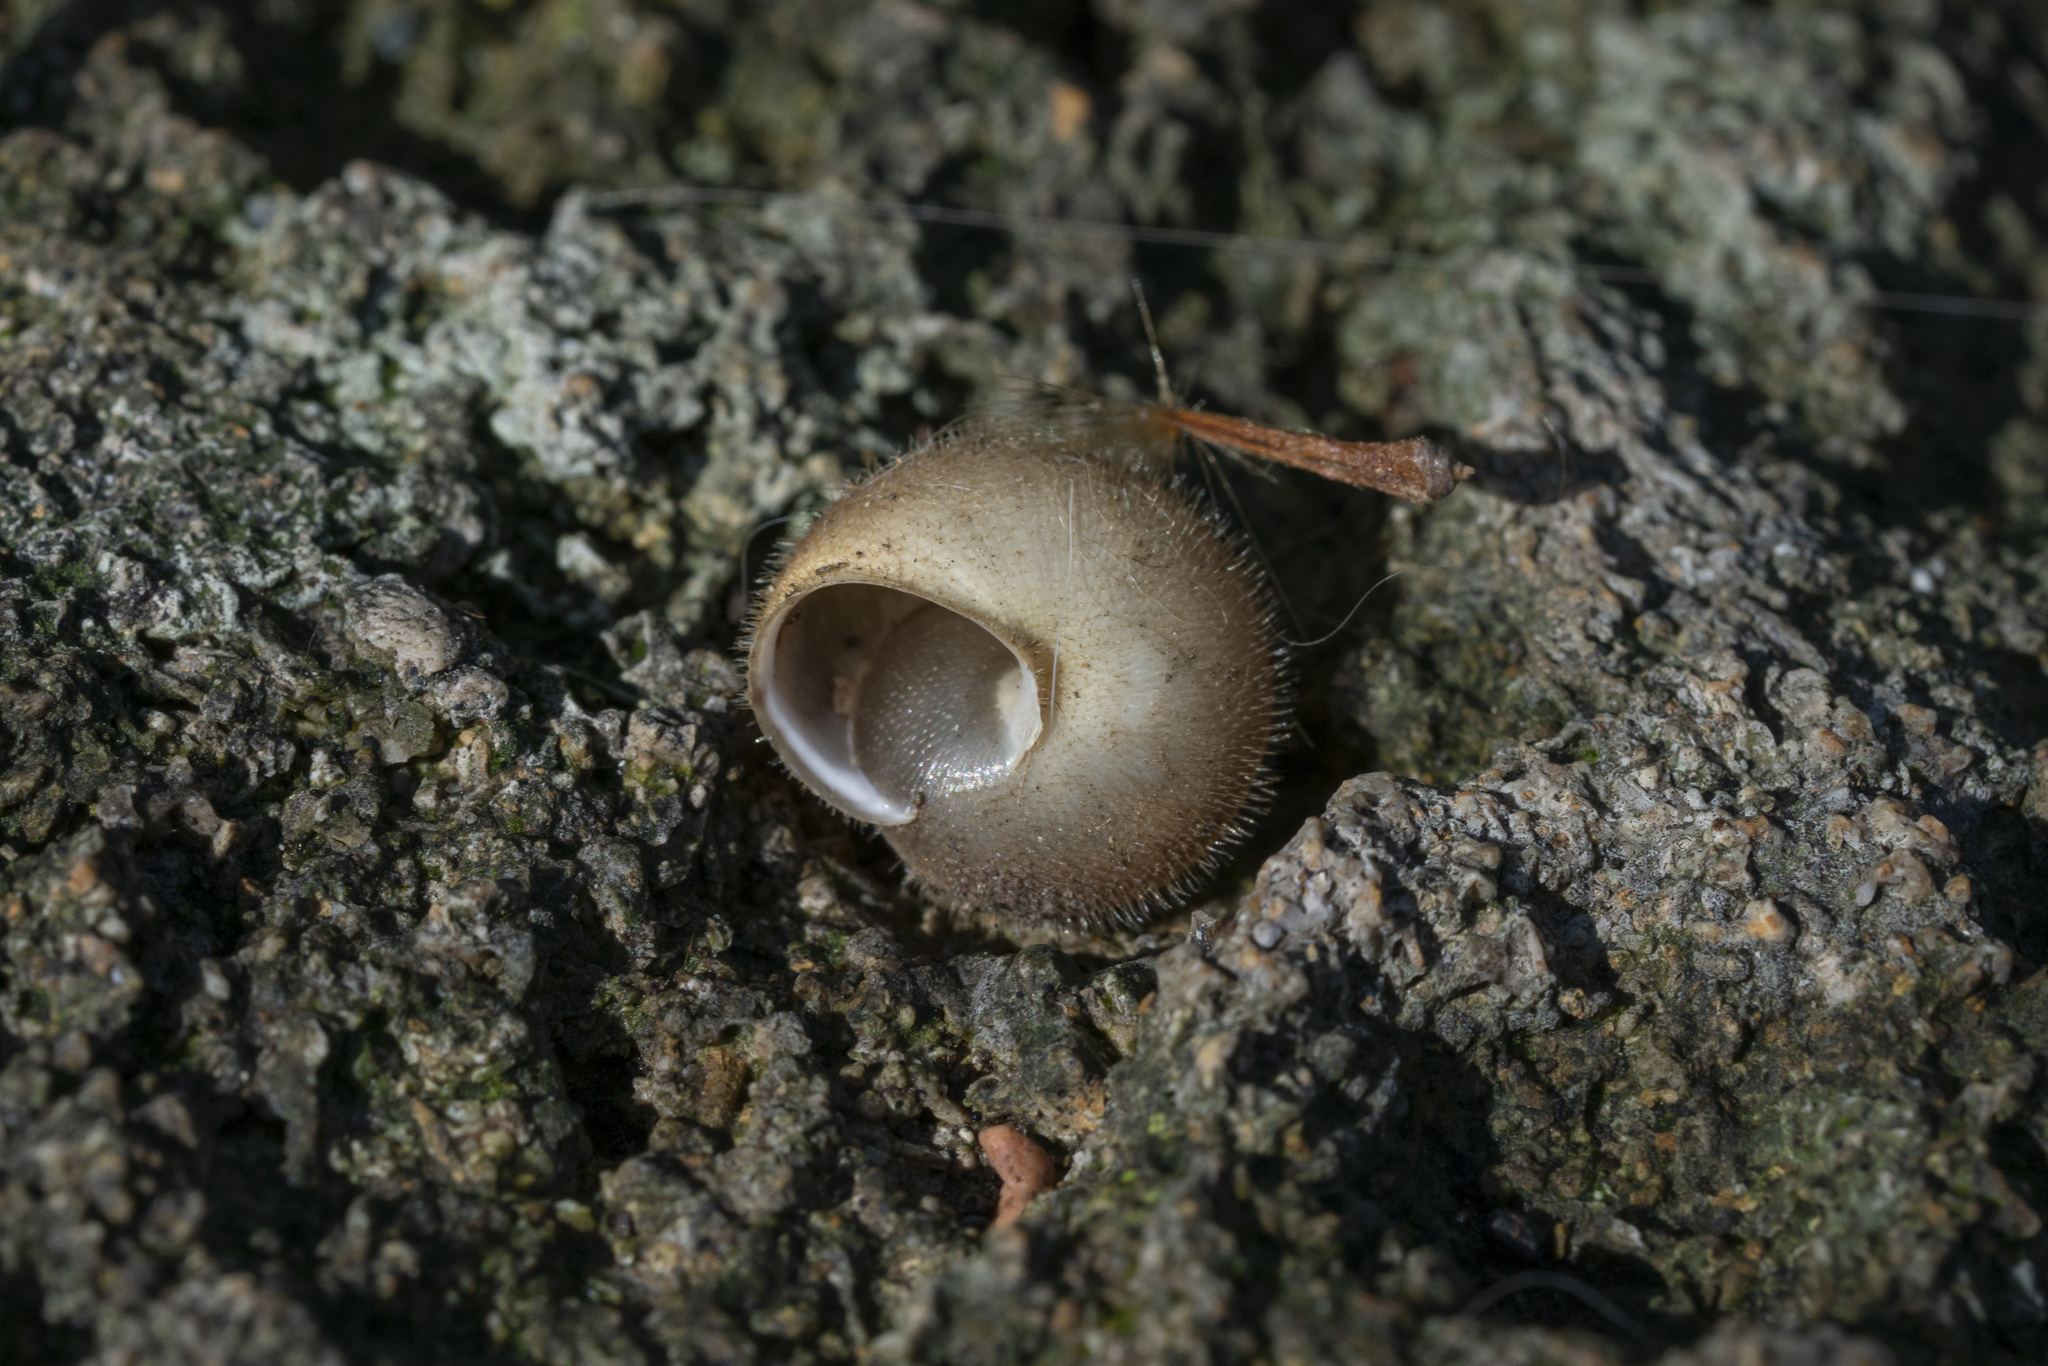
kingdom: Animalia
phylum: Mollusca
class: Gastropoda
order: Stylommatophora
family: Hygromiidae
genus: Metafruticicola
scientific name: Metafruticicola pellita
